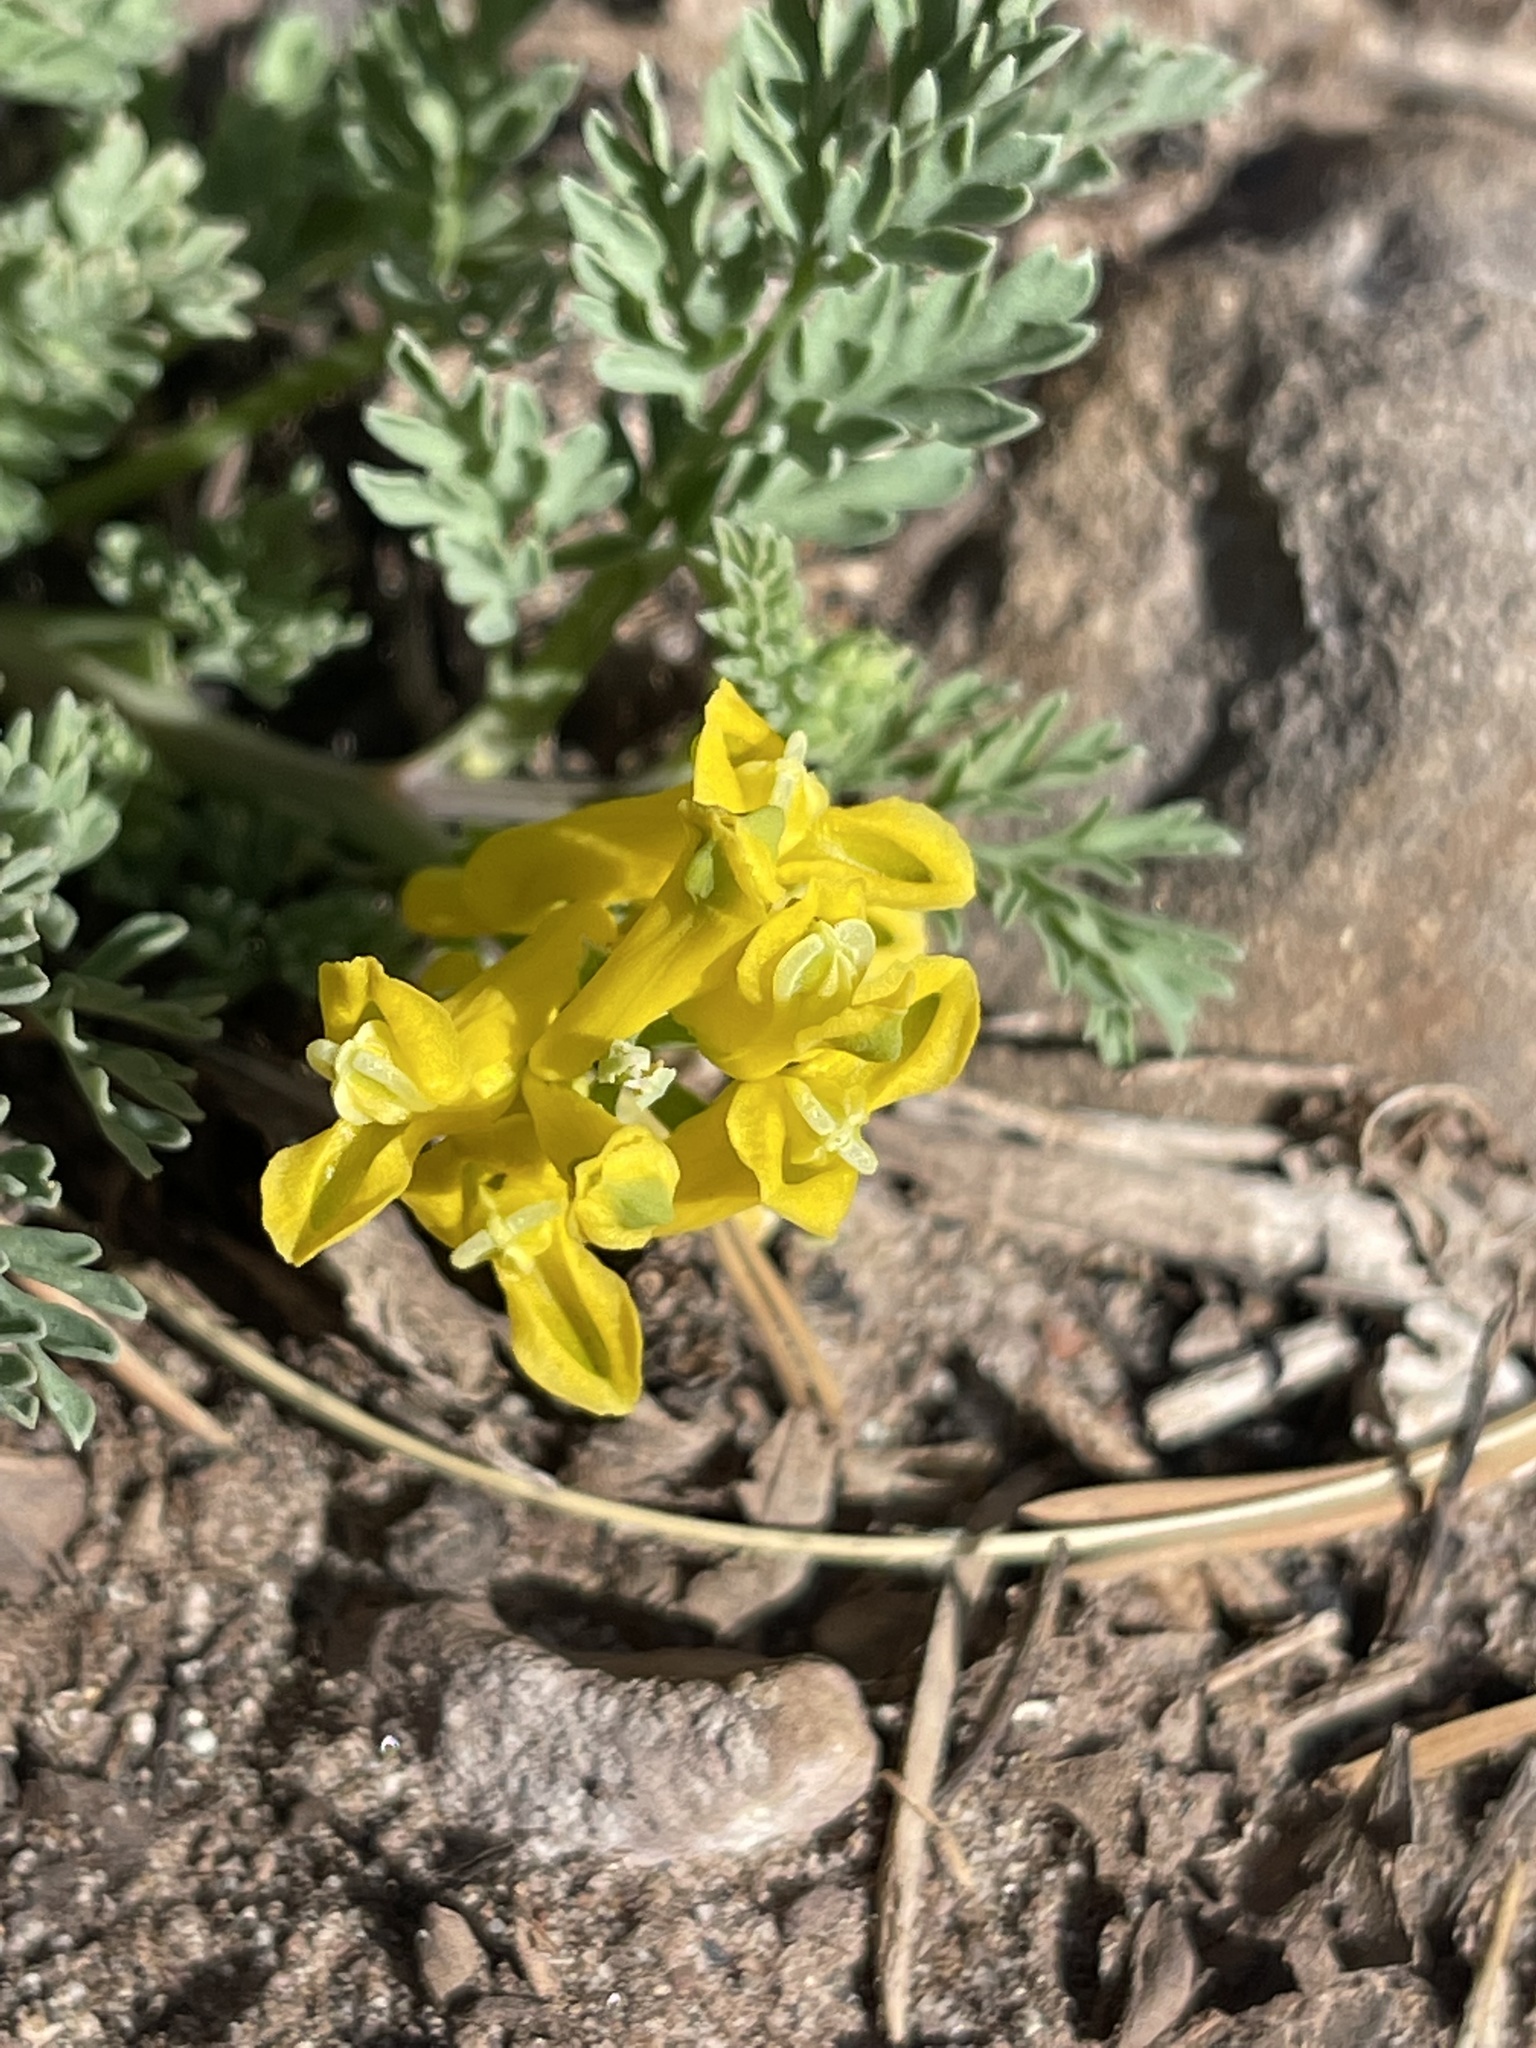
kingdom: Plantae
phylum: Tracheophyta
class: Magnoliopsida
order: Ranunculales
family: Papaveraceae
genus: Corydalis
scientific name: Corydalis aurea
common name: Golden corydalis
